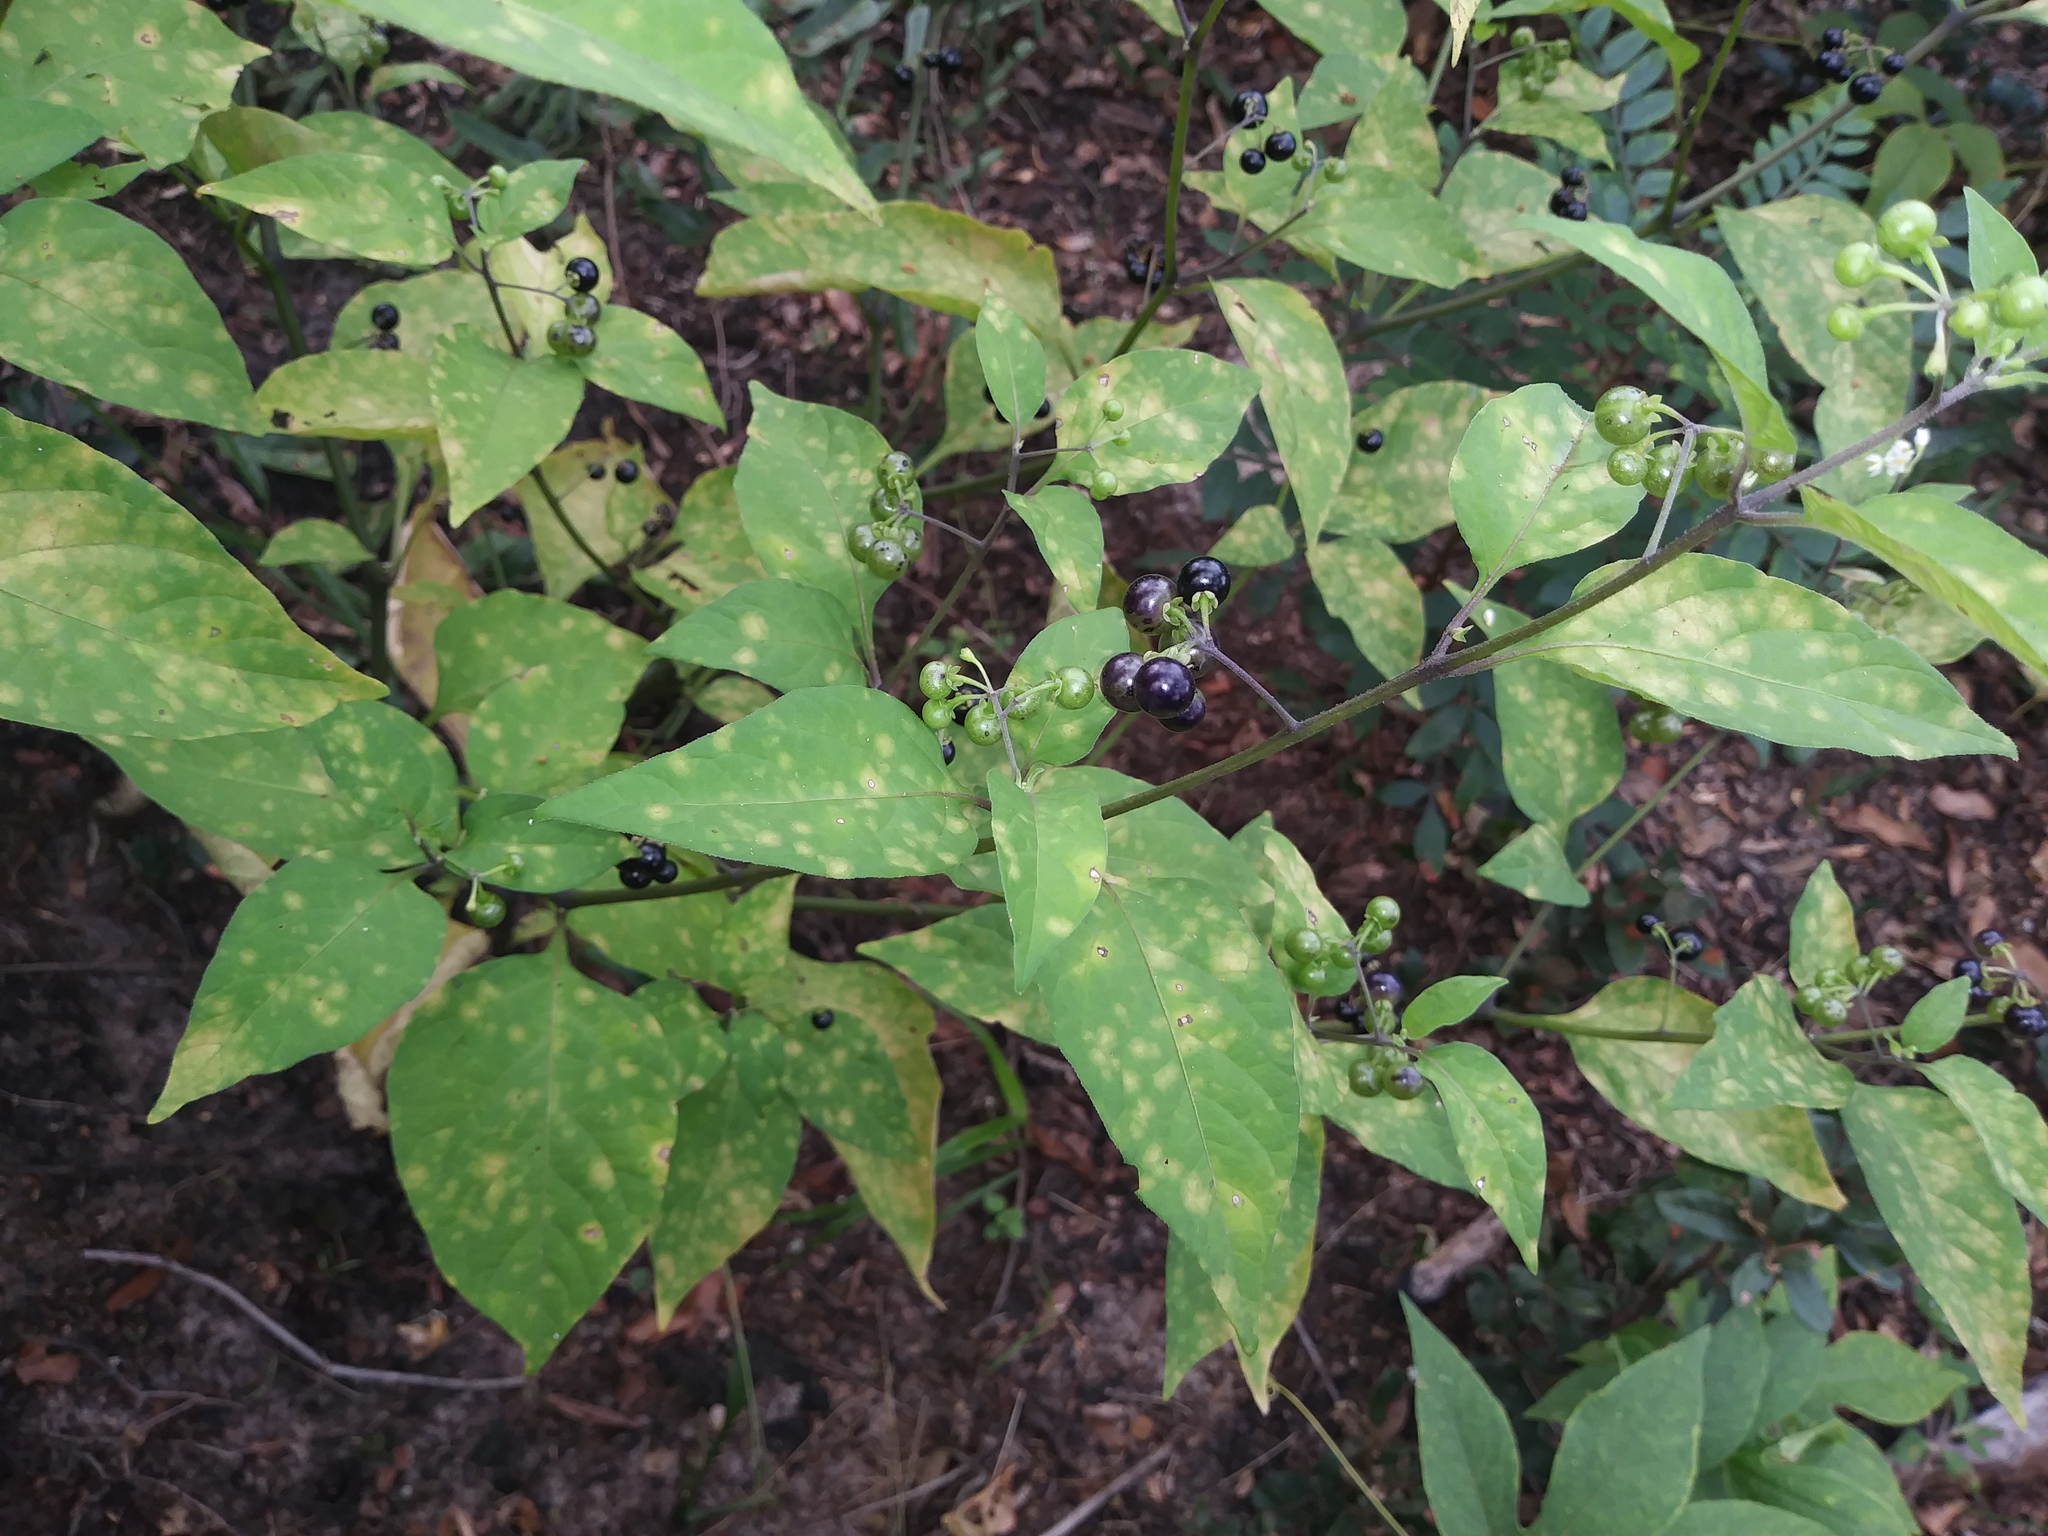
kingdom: Plantae
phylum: Tracheophyta
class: Magnoliopsida
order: Solanales
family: Solanaceae
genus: Solanum
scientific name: Solanum americanum
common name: American black nightshade
